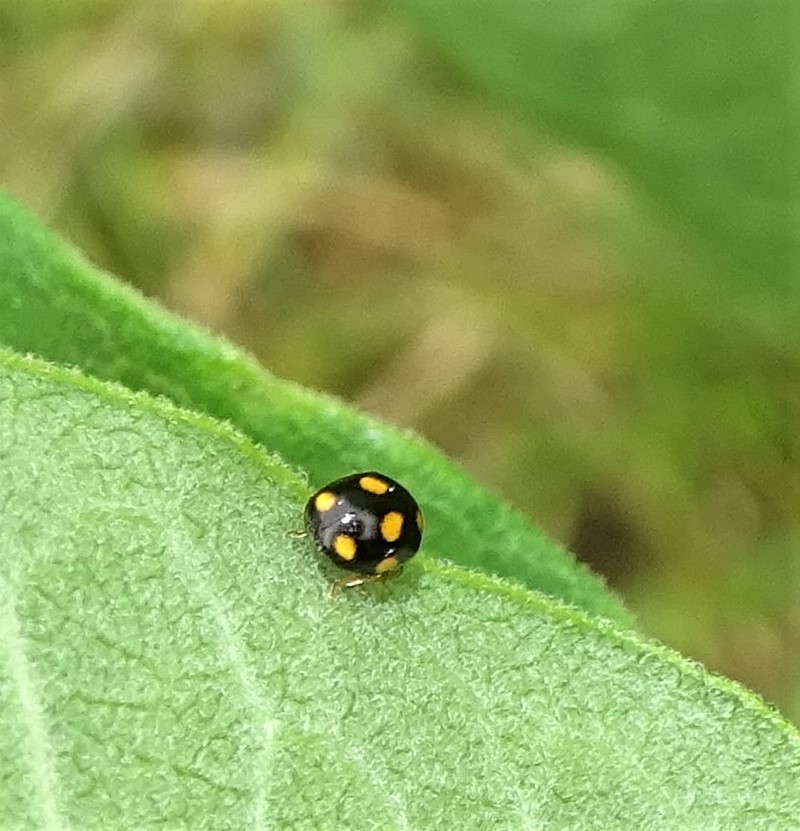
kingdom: Animalia
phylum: Arthropoda
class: Insecta
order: Coleoptera
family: Coccinellidae
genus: Brachiacantha
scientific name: Brachiacantha ursina
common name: Ursine spurleg lady beetle
